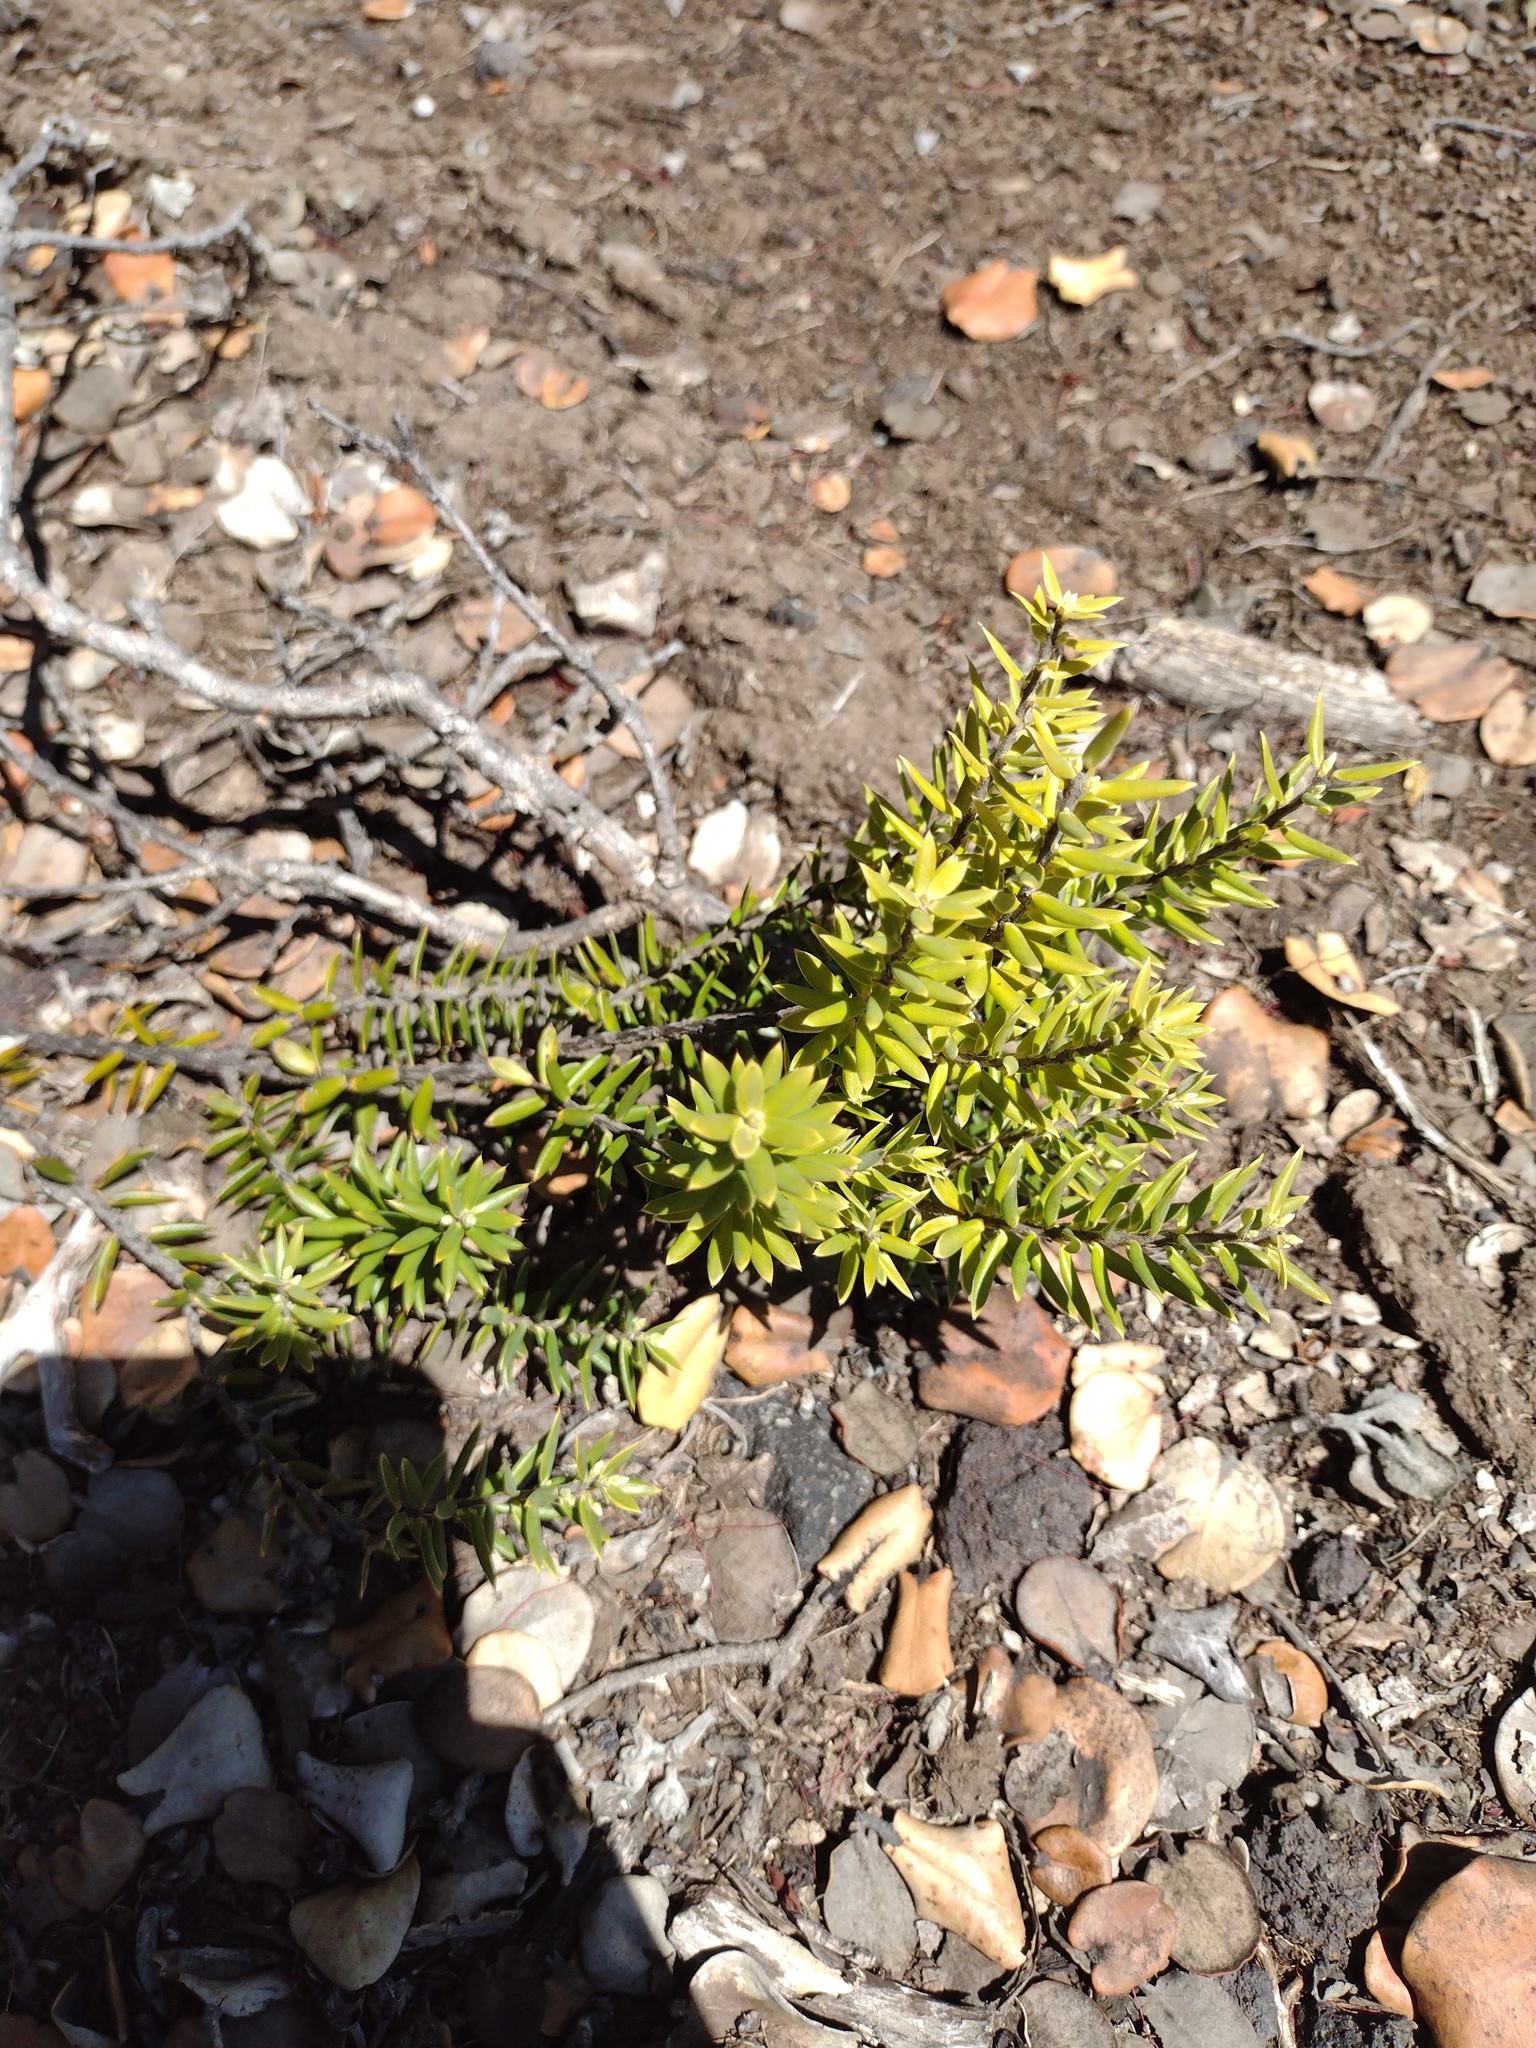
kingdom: Plantae
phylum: Tracheophyta
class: Magnoliopsida
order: Ericales
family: Ericaceae
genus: Leptecophylla
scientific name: Leptecophylla tameiameiae
